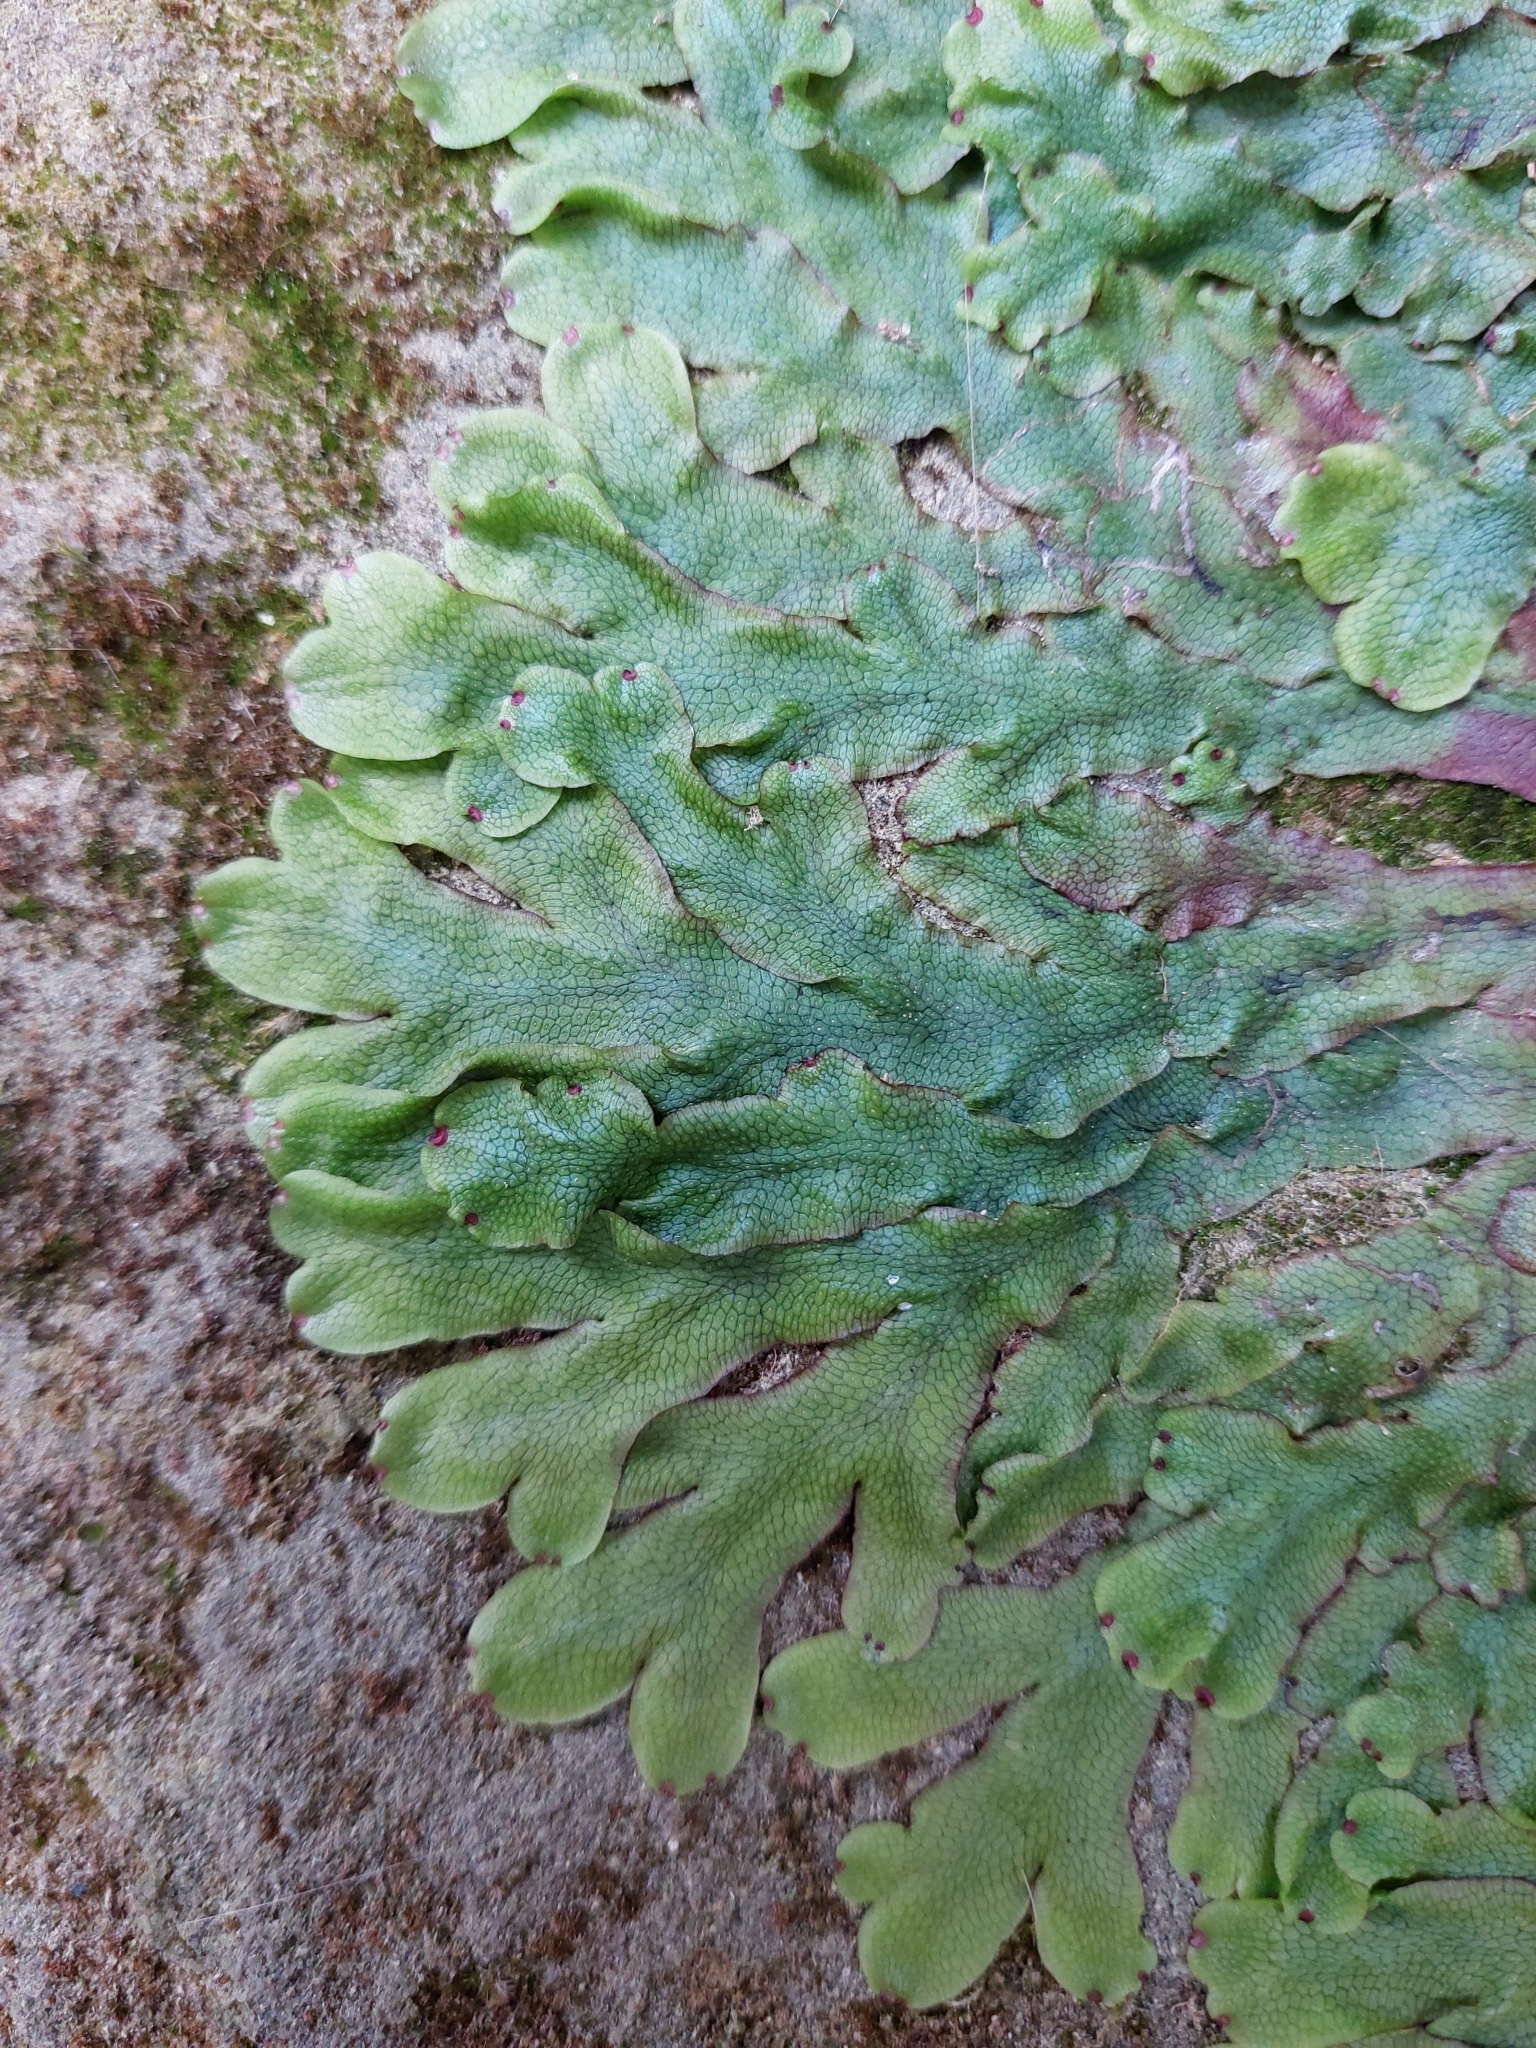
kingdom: Plantae
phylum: Marchantiophyta
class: Marchantiopsida
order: Marchantiales
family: Conocephalaceae
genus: Conocephalum
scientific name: Conocephalum salebrosum
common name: Cat-tongue liverwort
